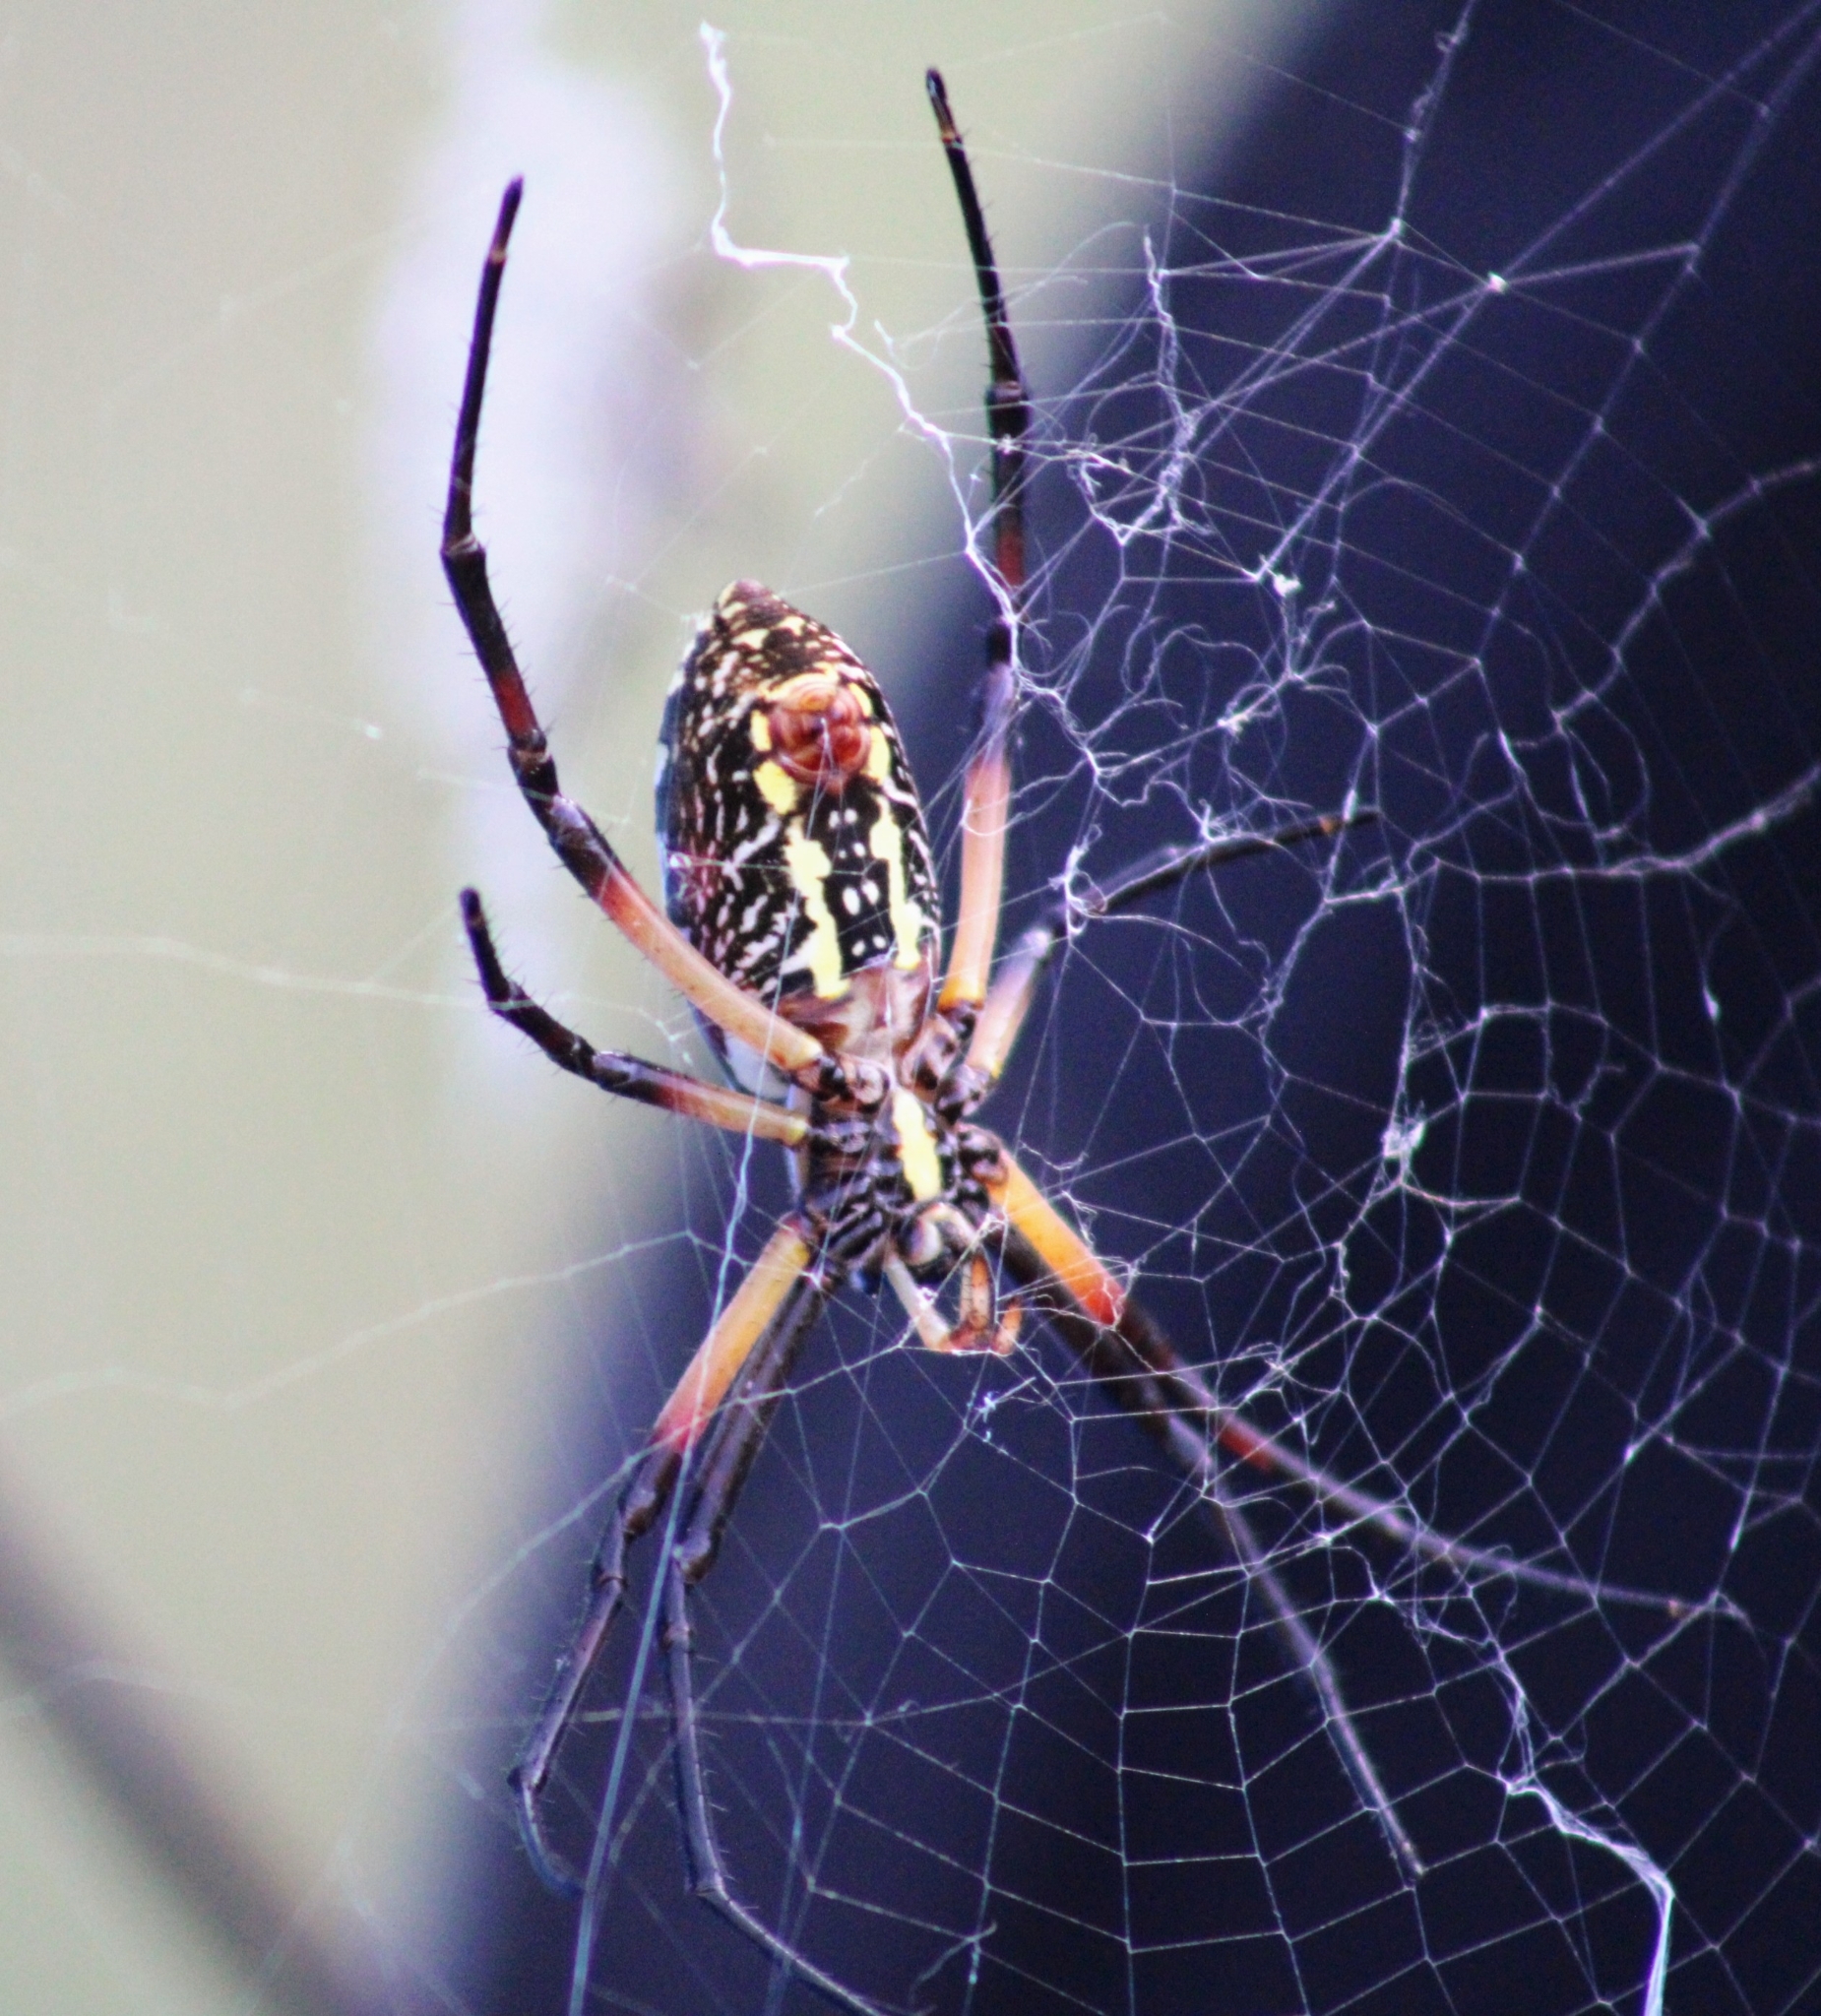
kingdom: Animalia
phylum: Arthropoda
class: Arachnida
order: Araneae
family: Araneidae
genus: Argiope
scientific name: Argiope aurantia
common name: Orb weavers
